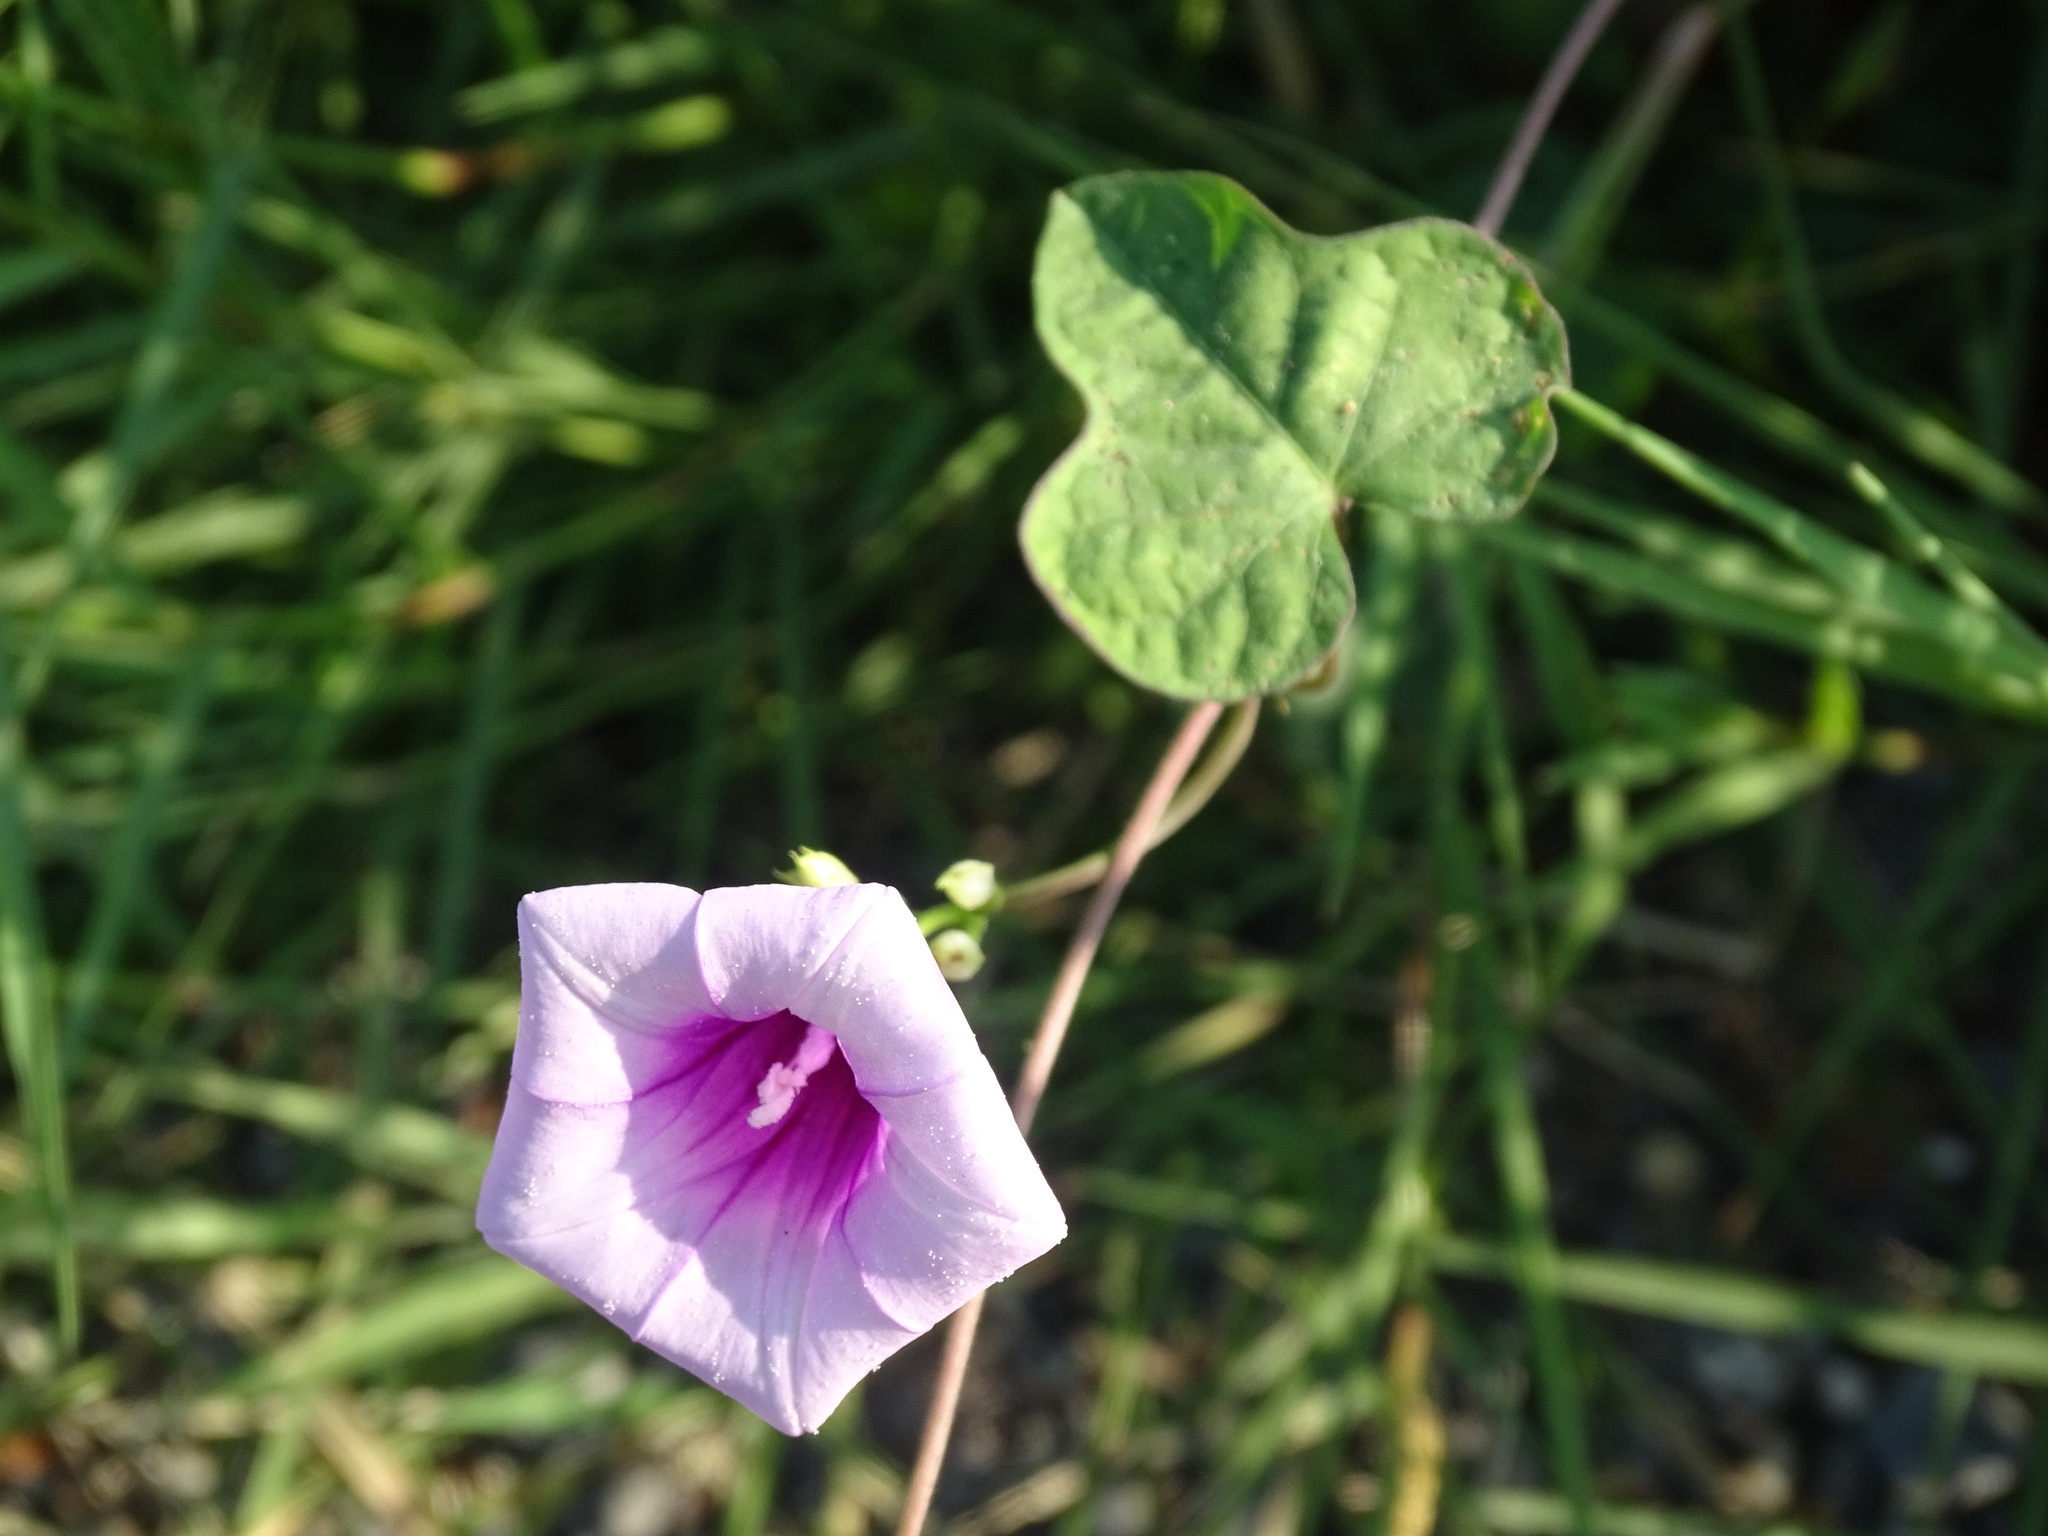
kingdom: Plantae
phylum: Tracheophyta
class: Magnoliopsida
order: Solanales
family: Convolvulaceae
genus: Ipomoea
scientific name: Ipomoea trifida
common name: Cotton morningglory
